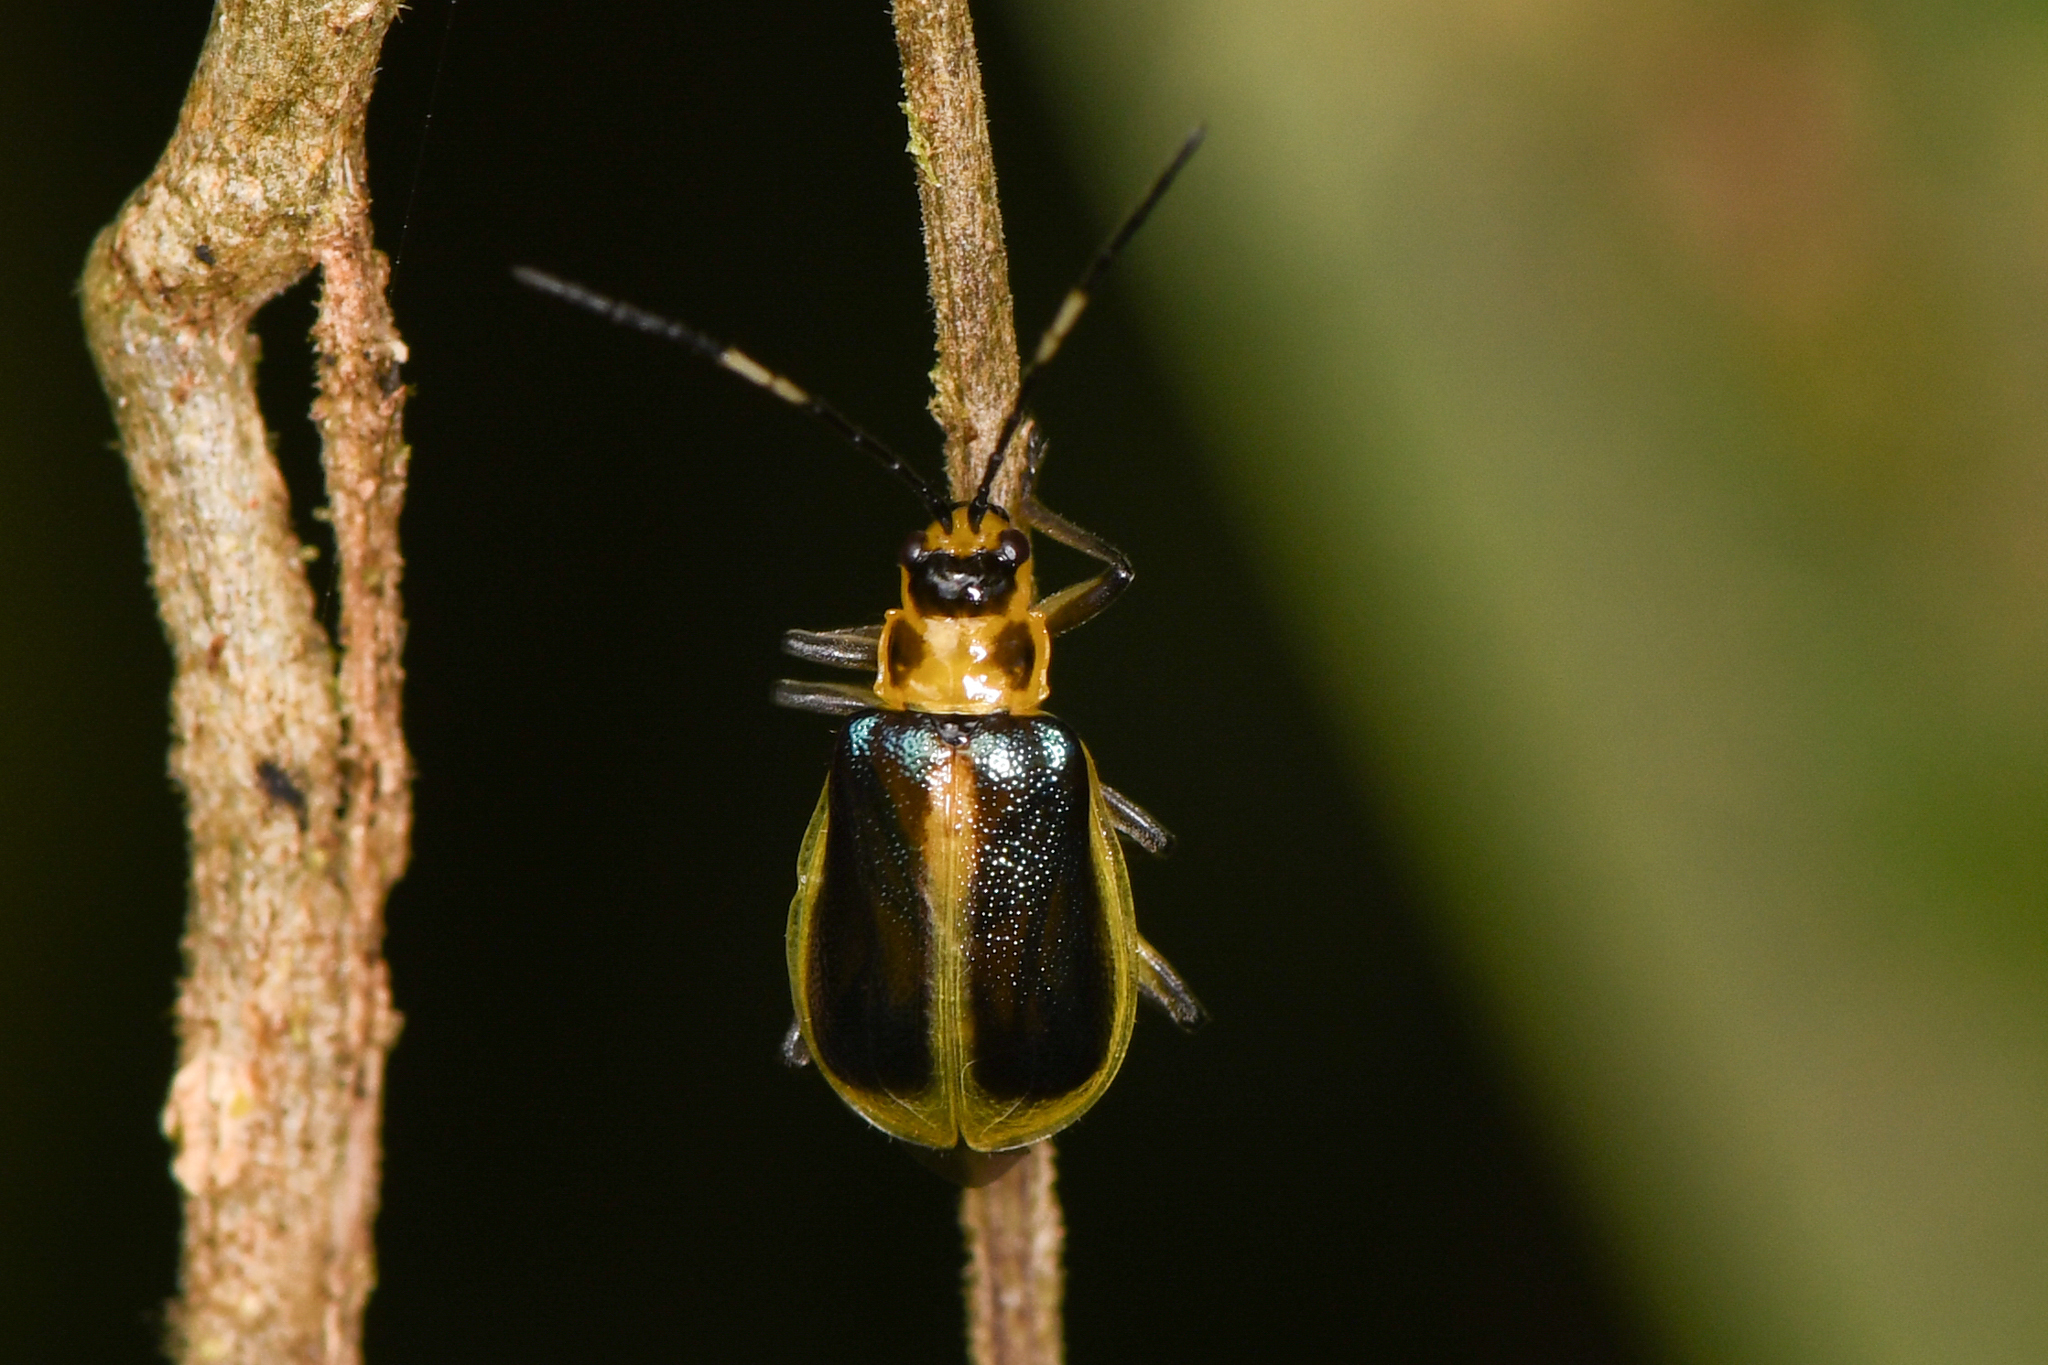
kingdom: Animalia
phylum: Arthropoda
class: Insecta
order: Coleoptera
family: Chrysomelidae
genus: Isotes
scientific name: Isotes
